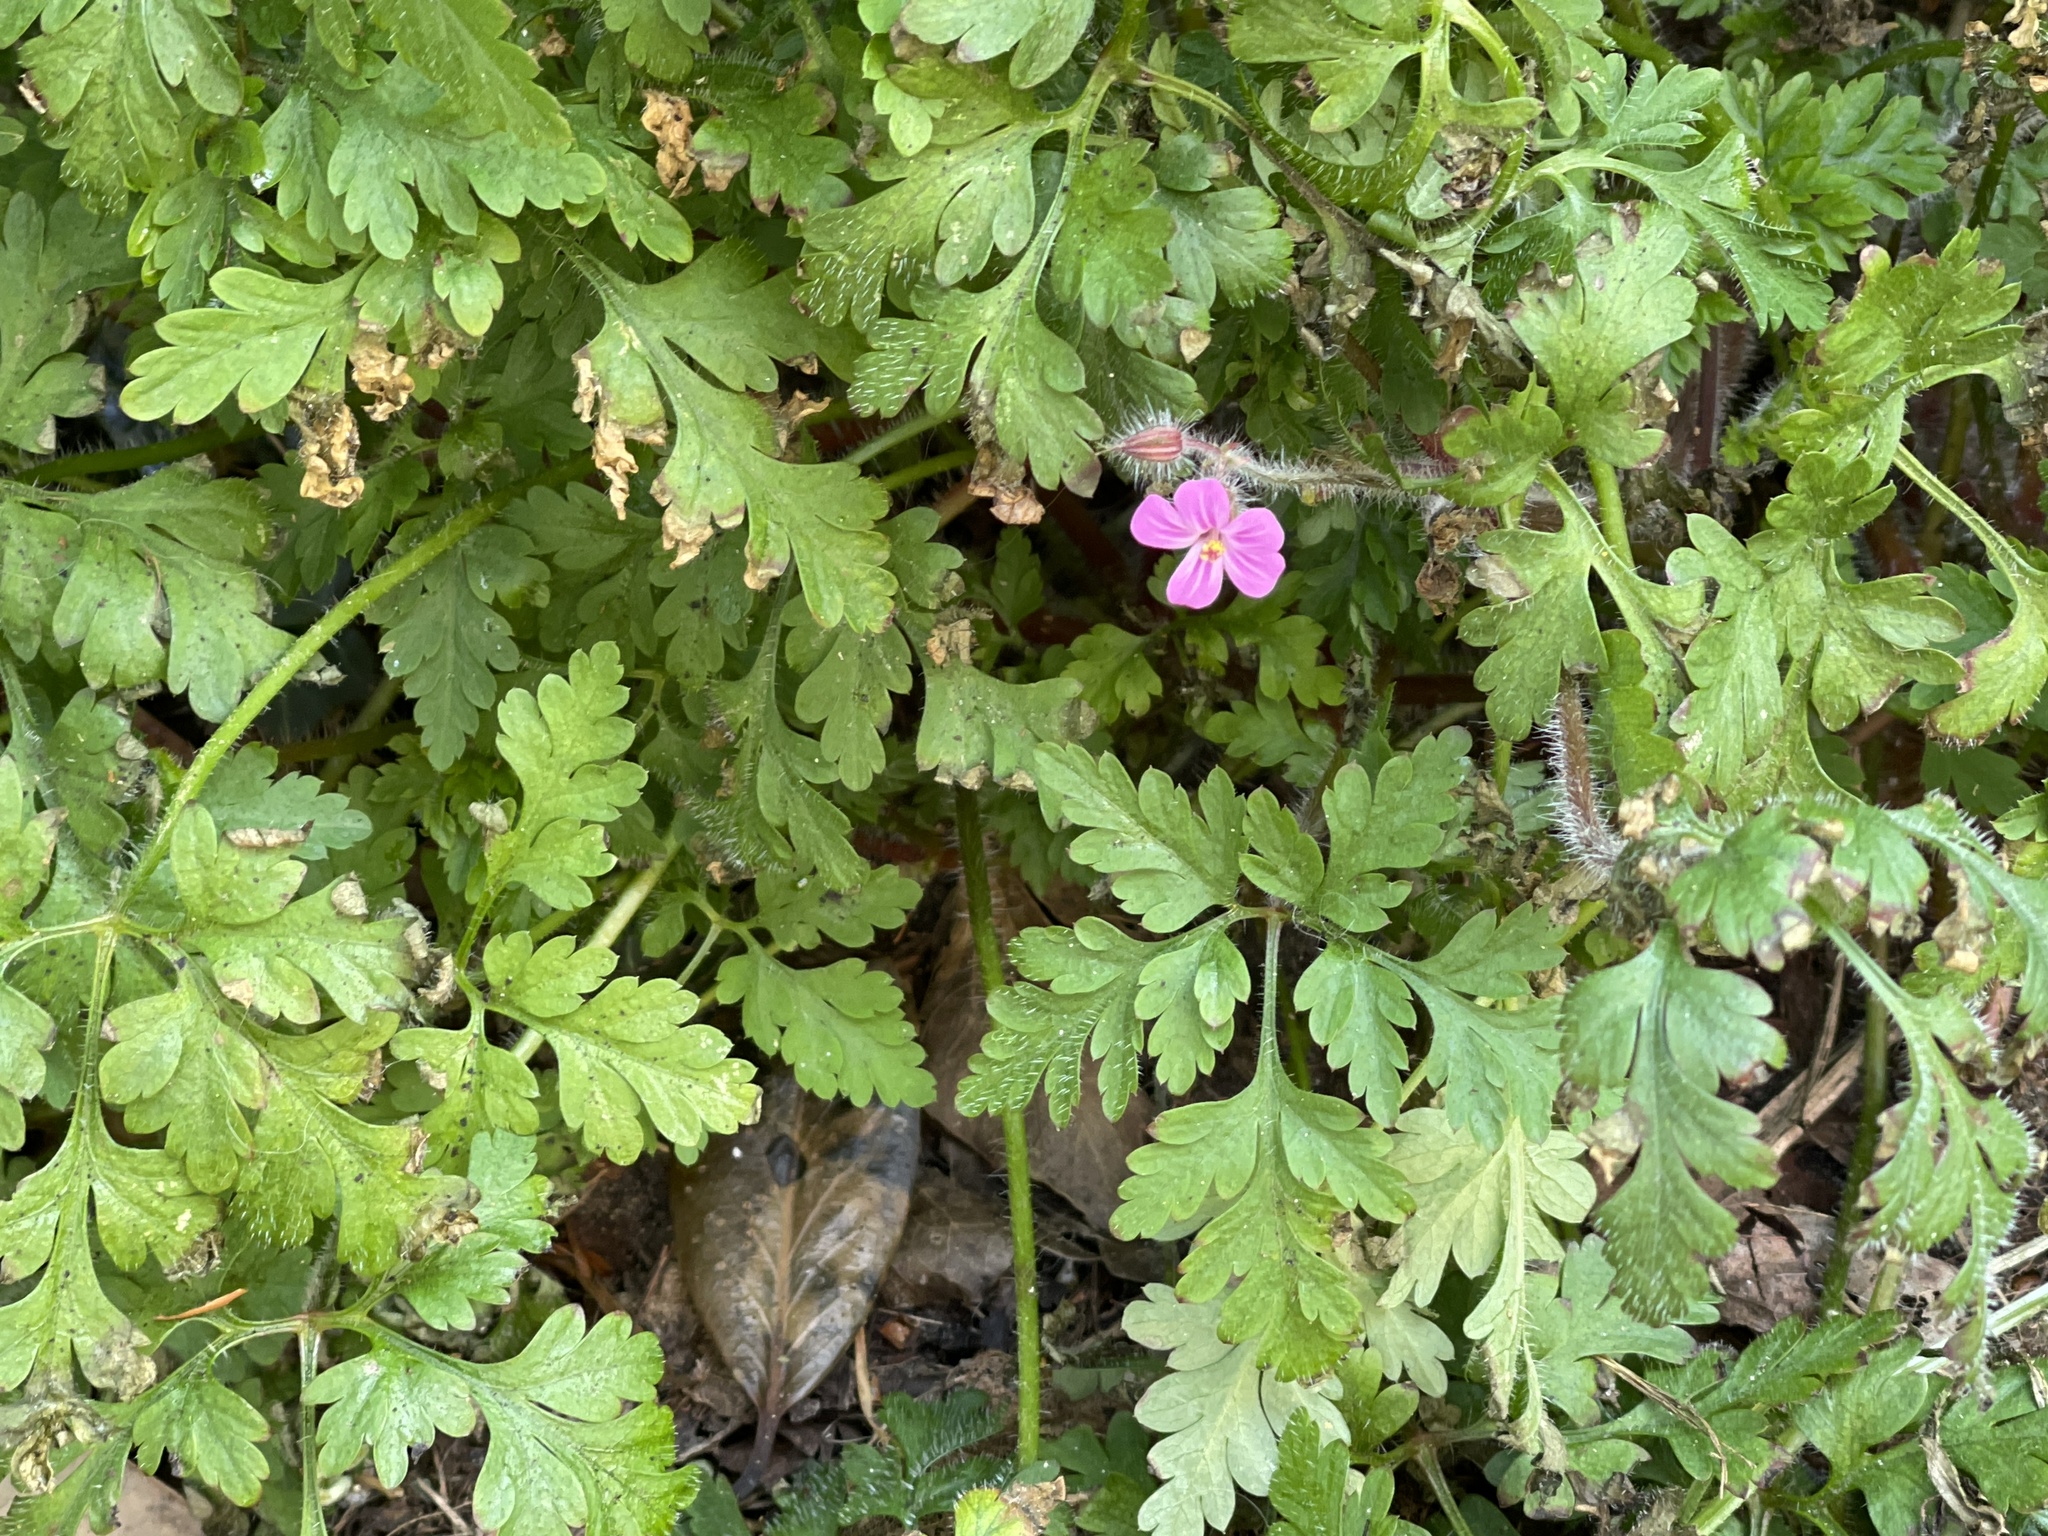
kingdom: Plantae
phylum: Tracheophyta
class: Magnoliopsida
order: Geraniales
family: Geraniaceae
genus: Geranium
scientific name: Geranium robertianum
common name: Herb-robert
